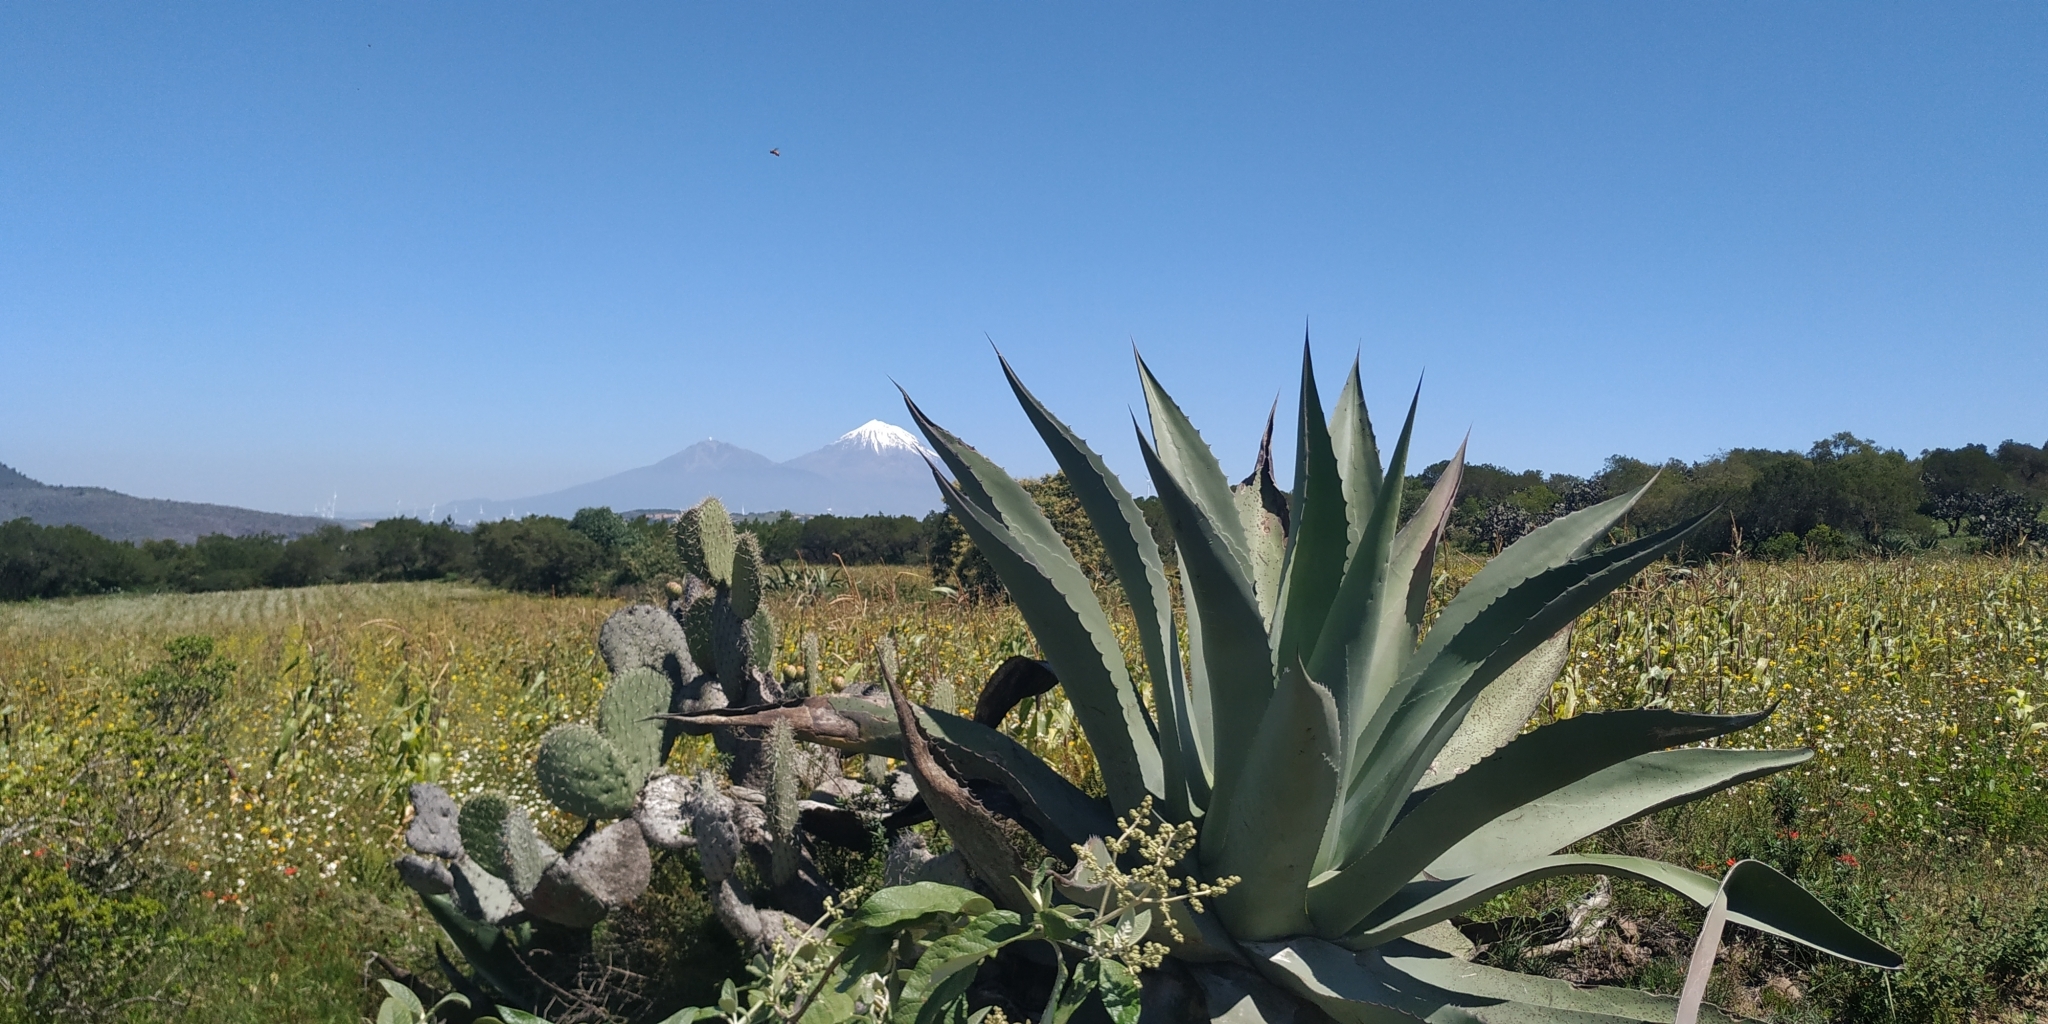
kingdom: Plantae
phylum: Tracheophyta
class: Liliopsida
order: Asparagales
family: Asparagaceae
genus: Agave
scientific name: Agave salmiana
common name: Pulque agave
